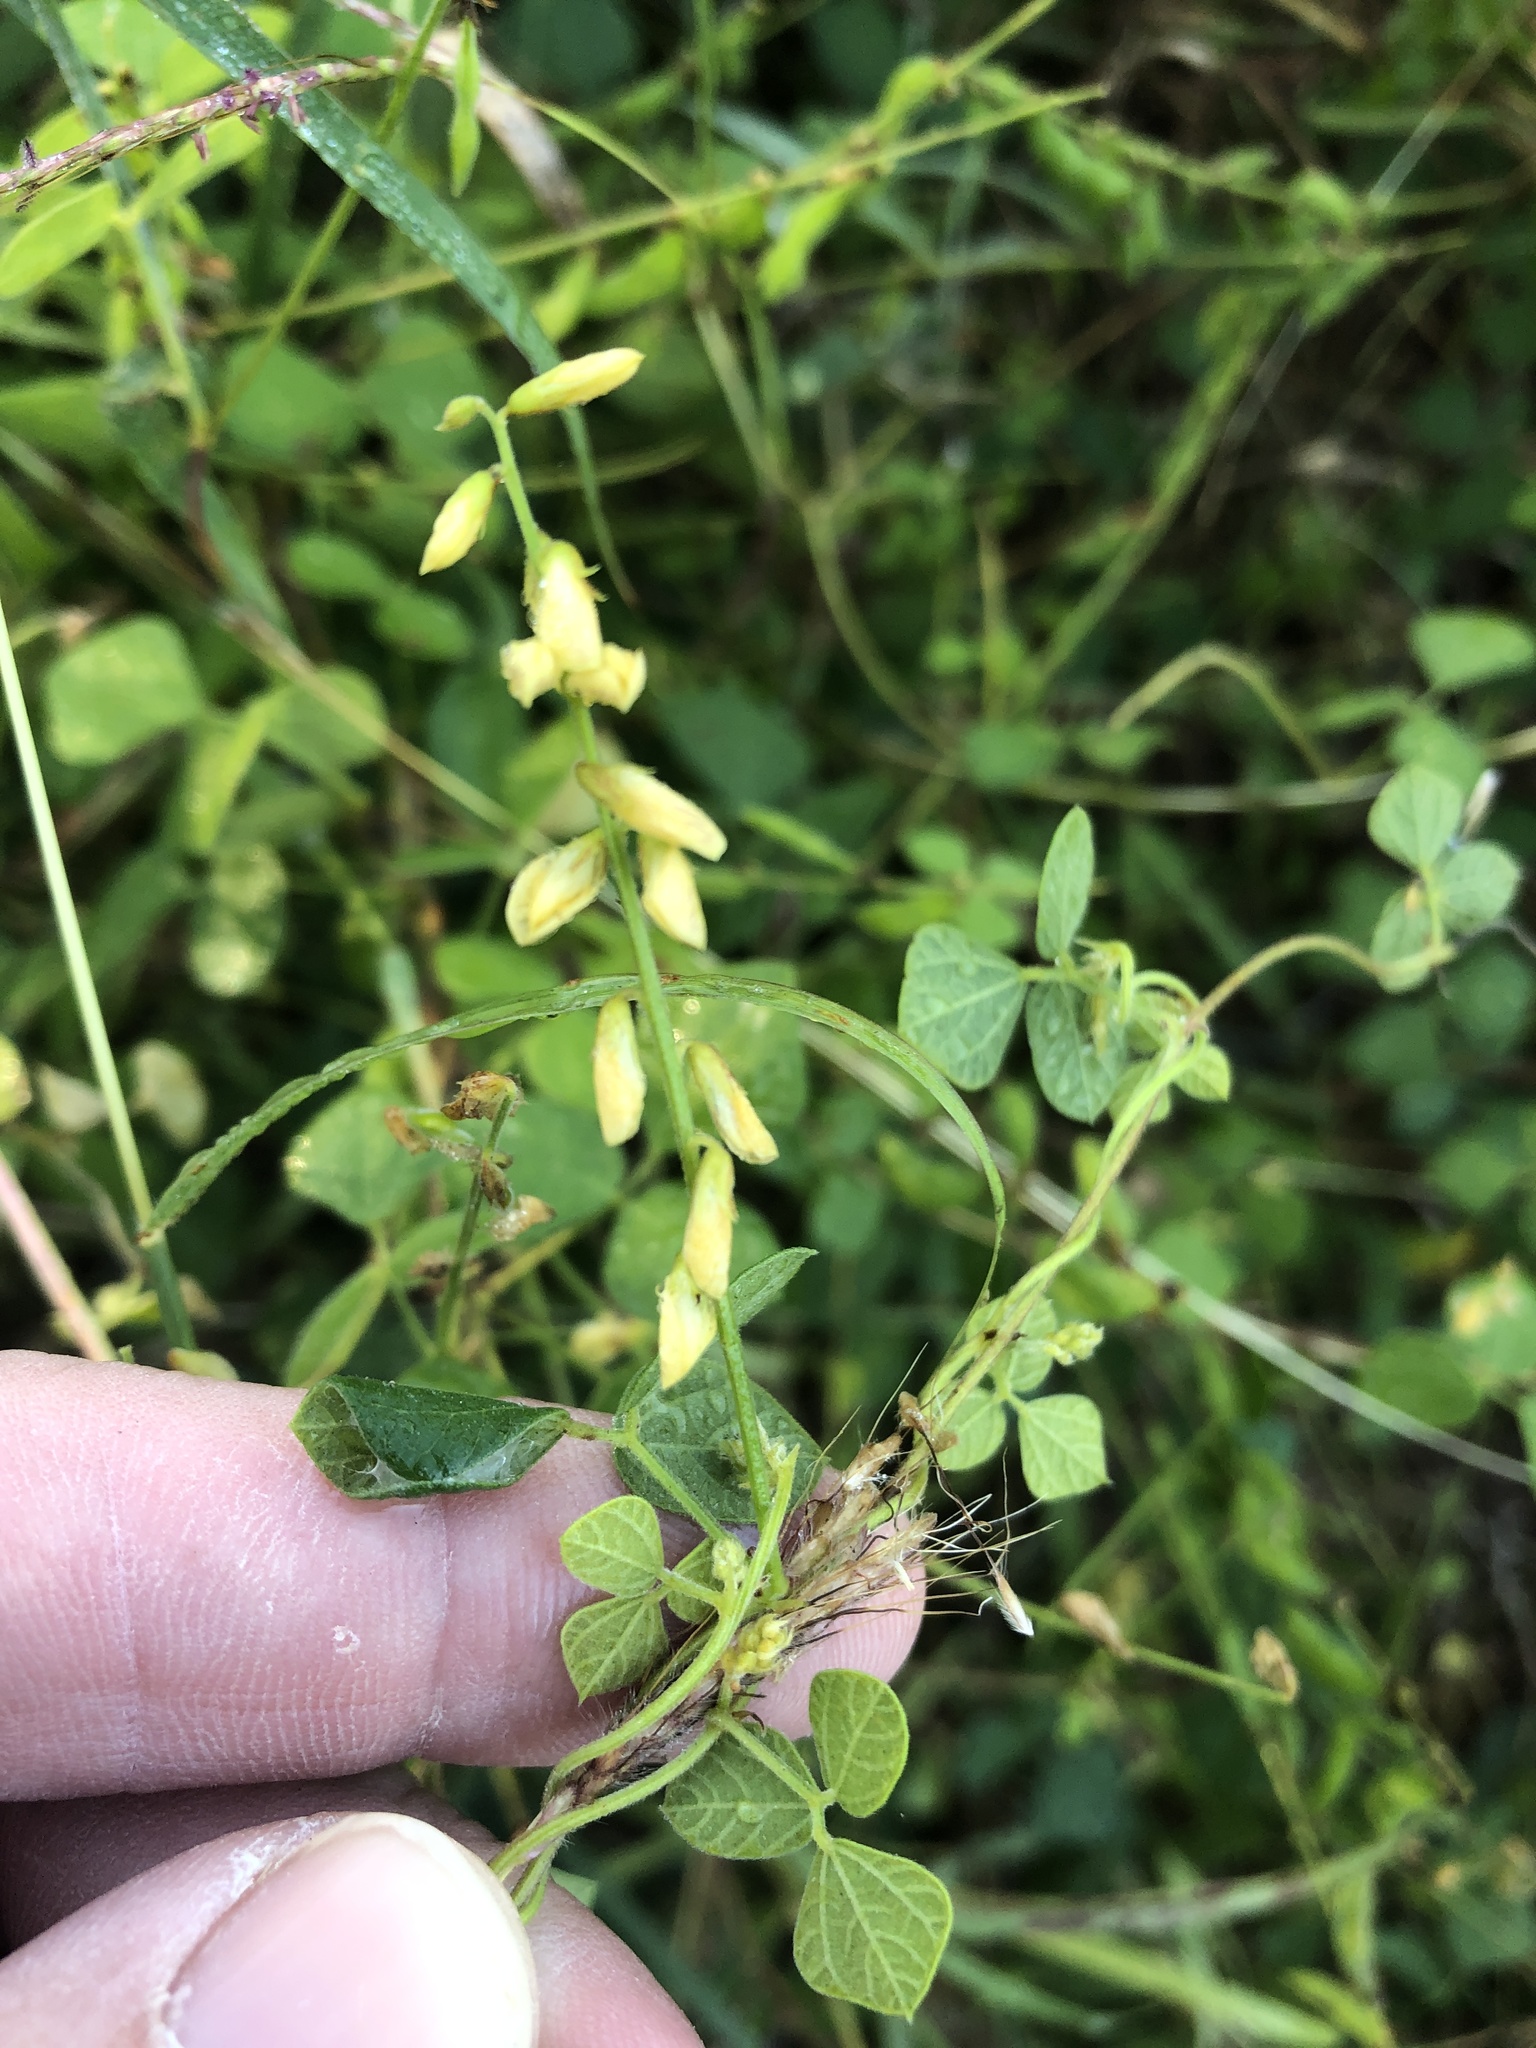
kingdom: Plantae
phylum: Tracheophyta
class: Magnoliopsida
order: Fabales
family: Fabaceae
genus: Rhynchosia
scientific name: Rhynchosia minima
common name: Least snoutbean
